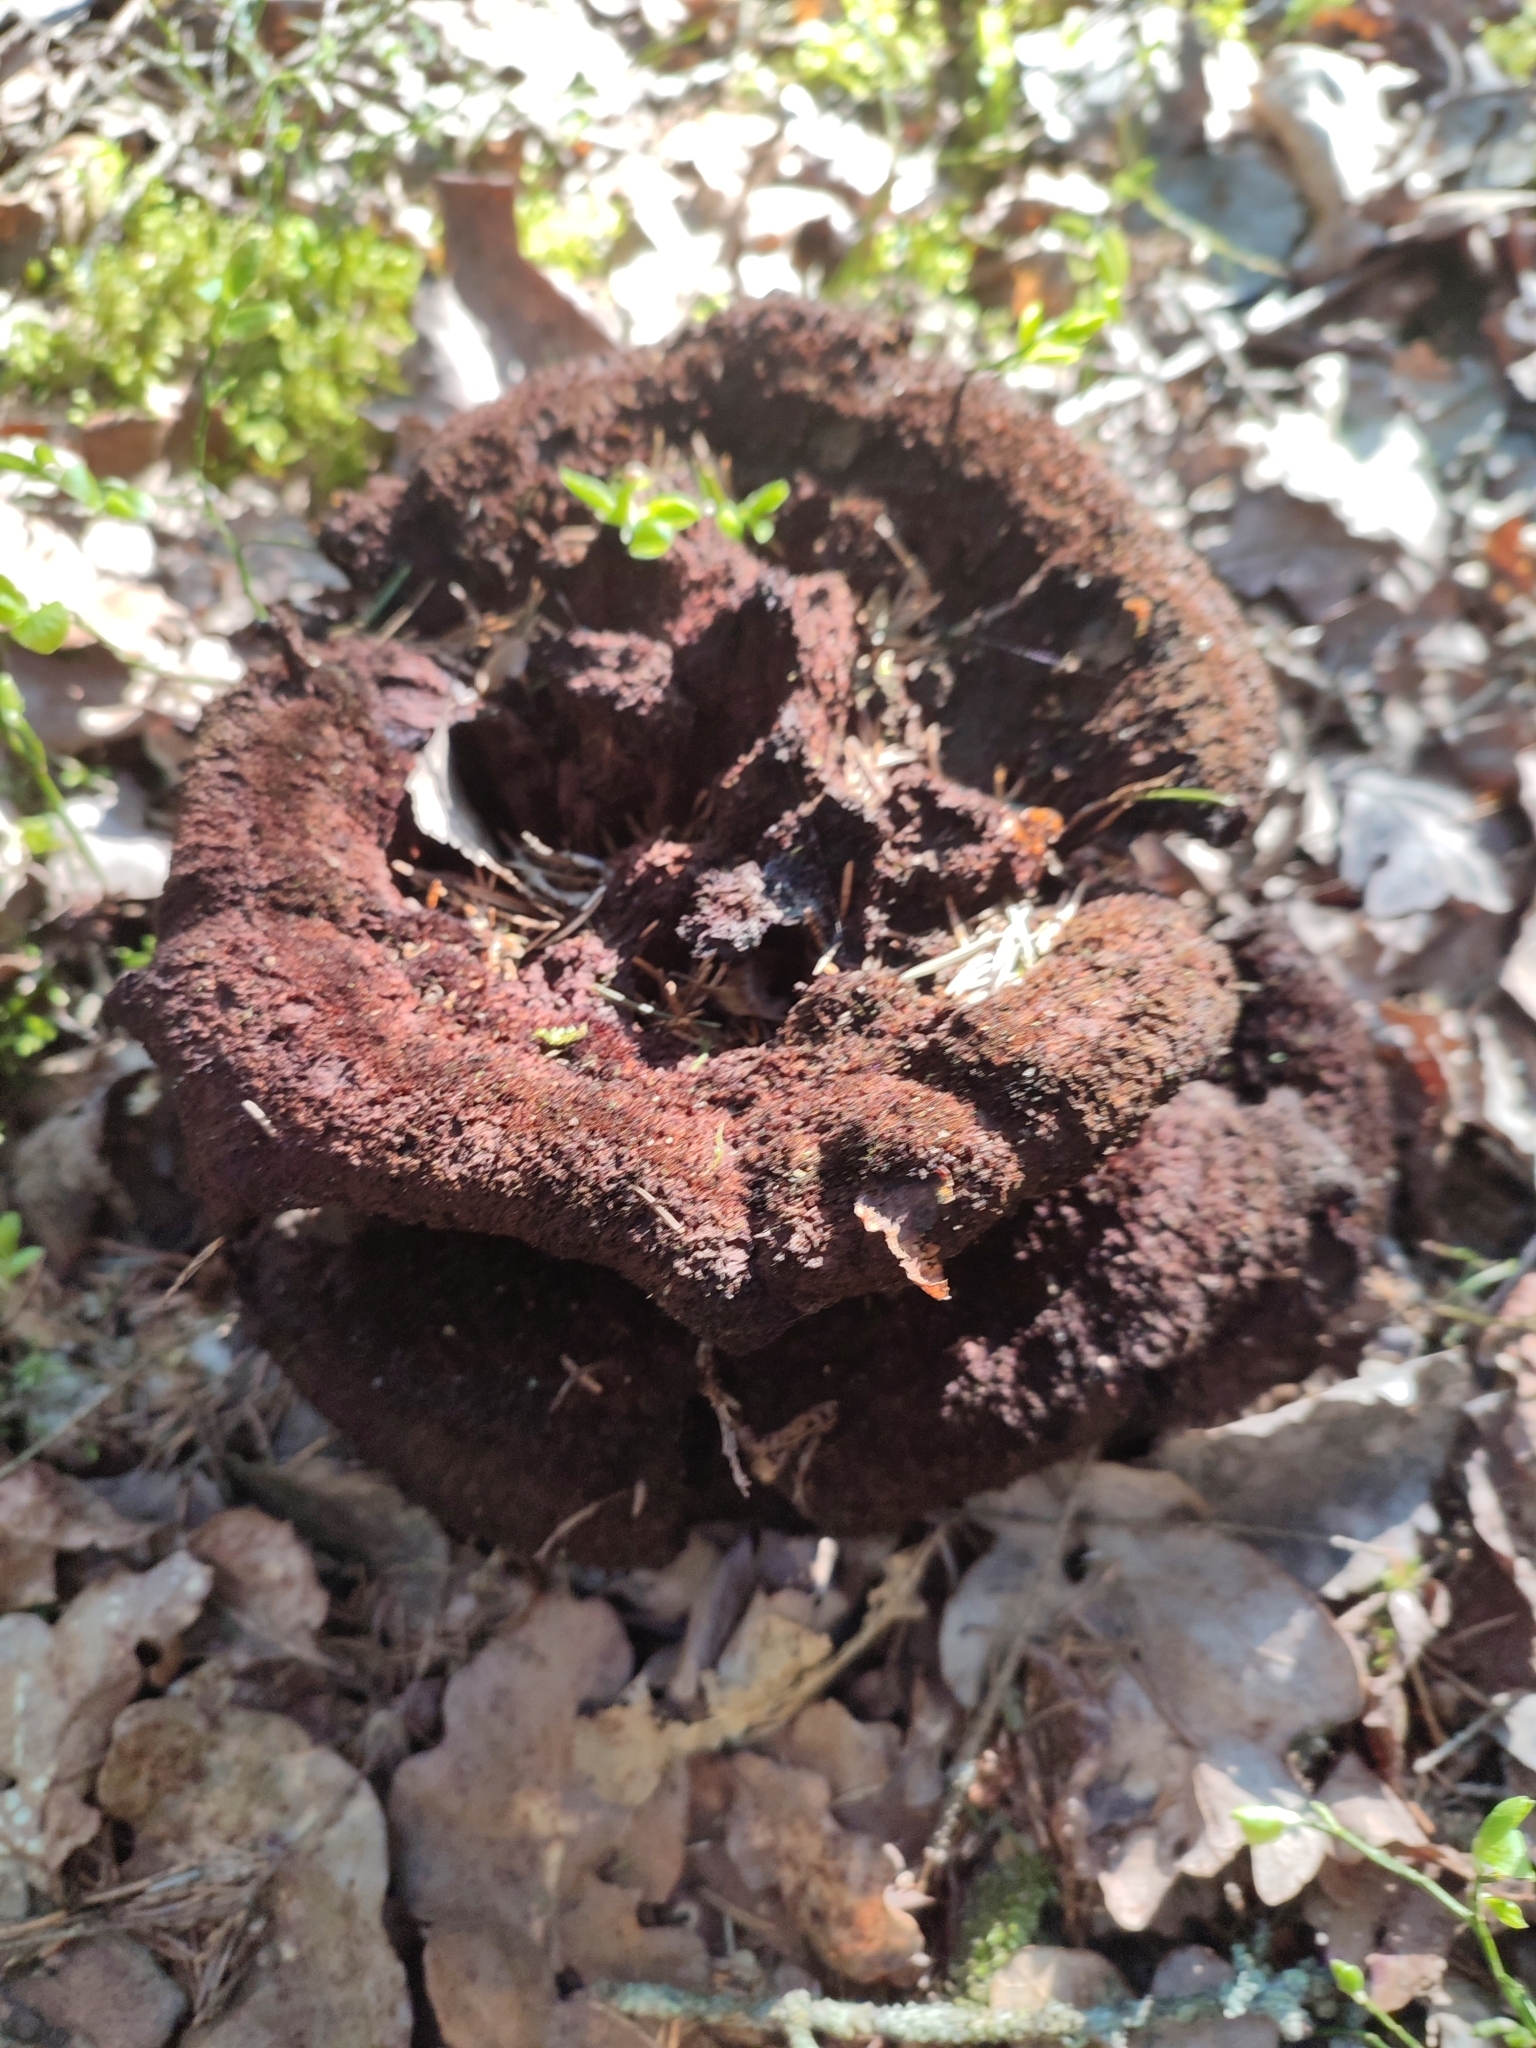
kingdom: Fungi
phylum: Basidiomycota
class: Agaricomycetes
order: Polyporales
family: Laetiporaceae
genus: Phaeolus
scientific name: Phaeolus schweinitzii
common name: Dyer's mazegill
